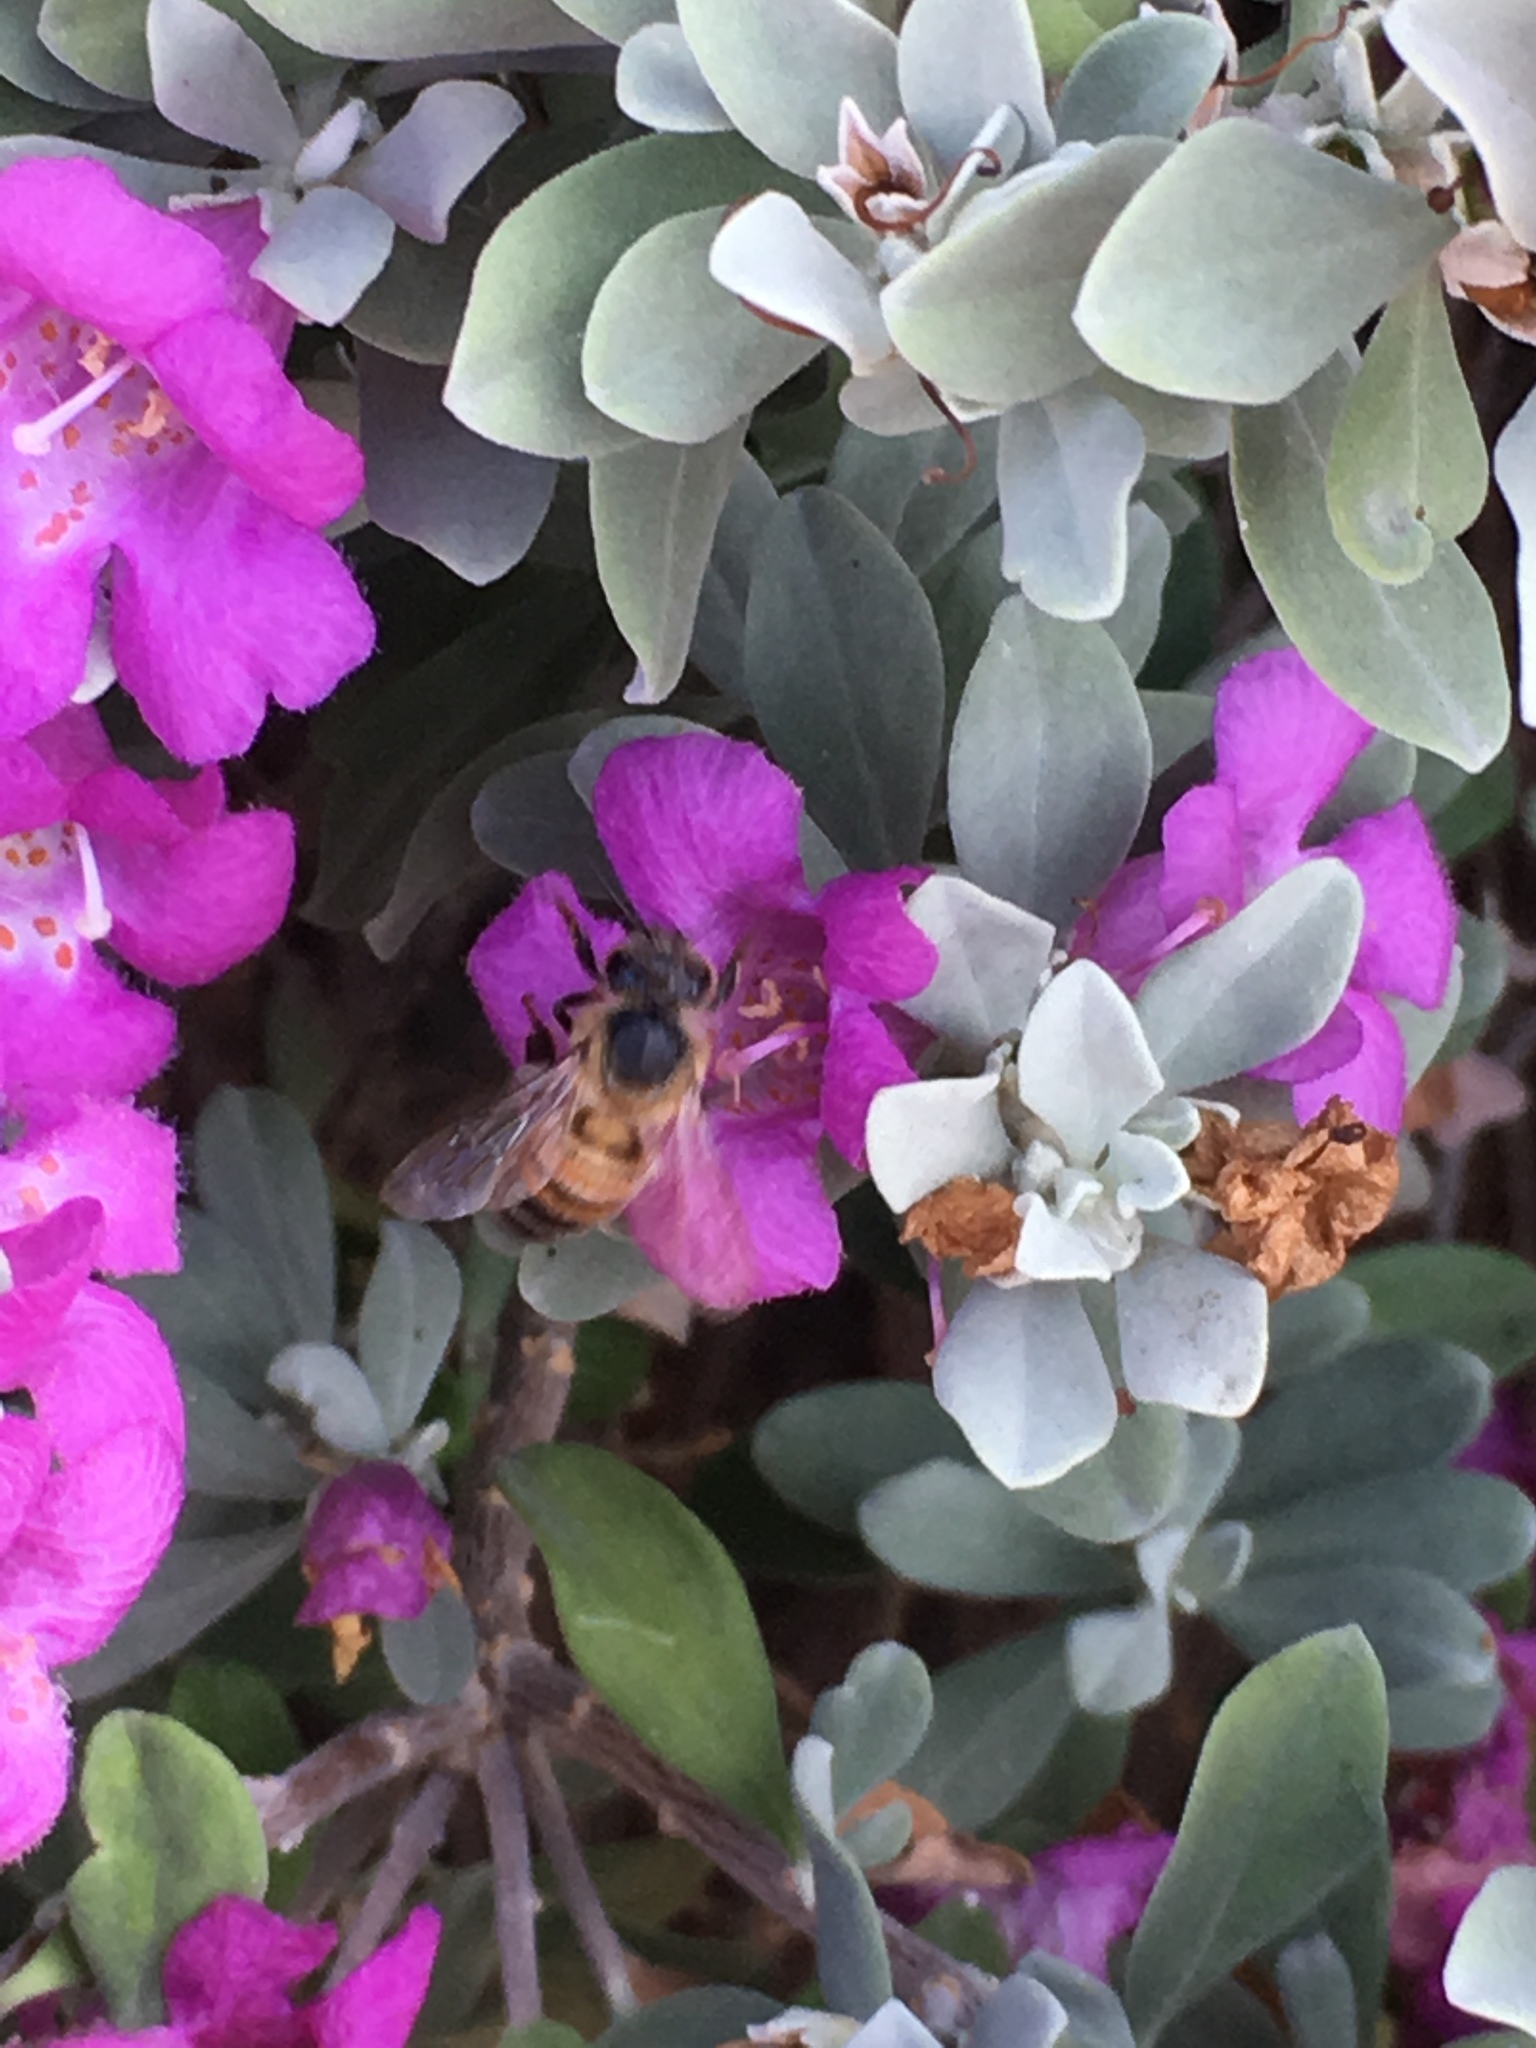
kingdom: Animalia
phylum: Arthropoda
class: Insecta
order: Hymenoptera
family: Apidae
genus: Apis
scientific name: Apis mellifera
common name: Honey bee
